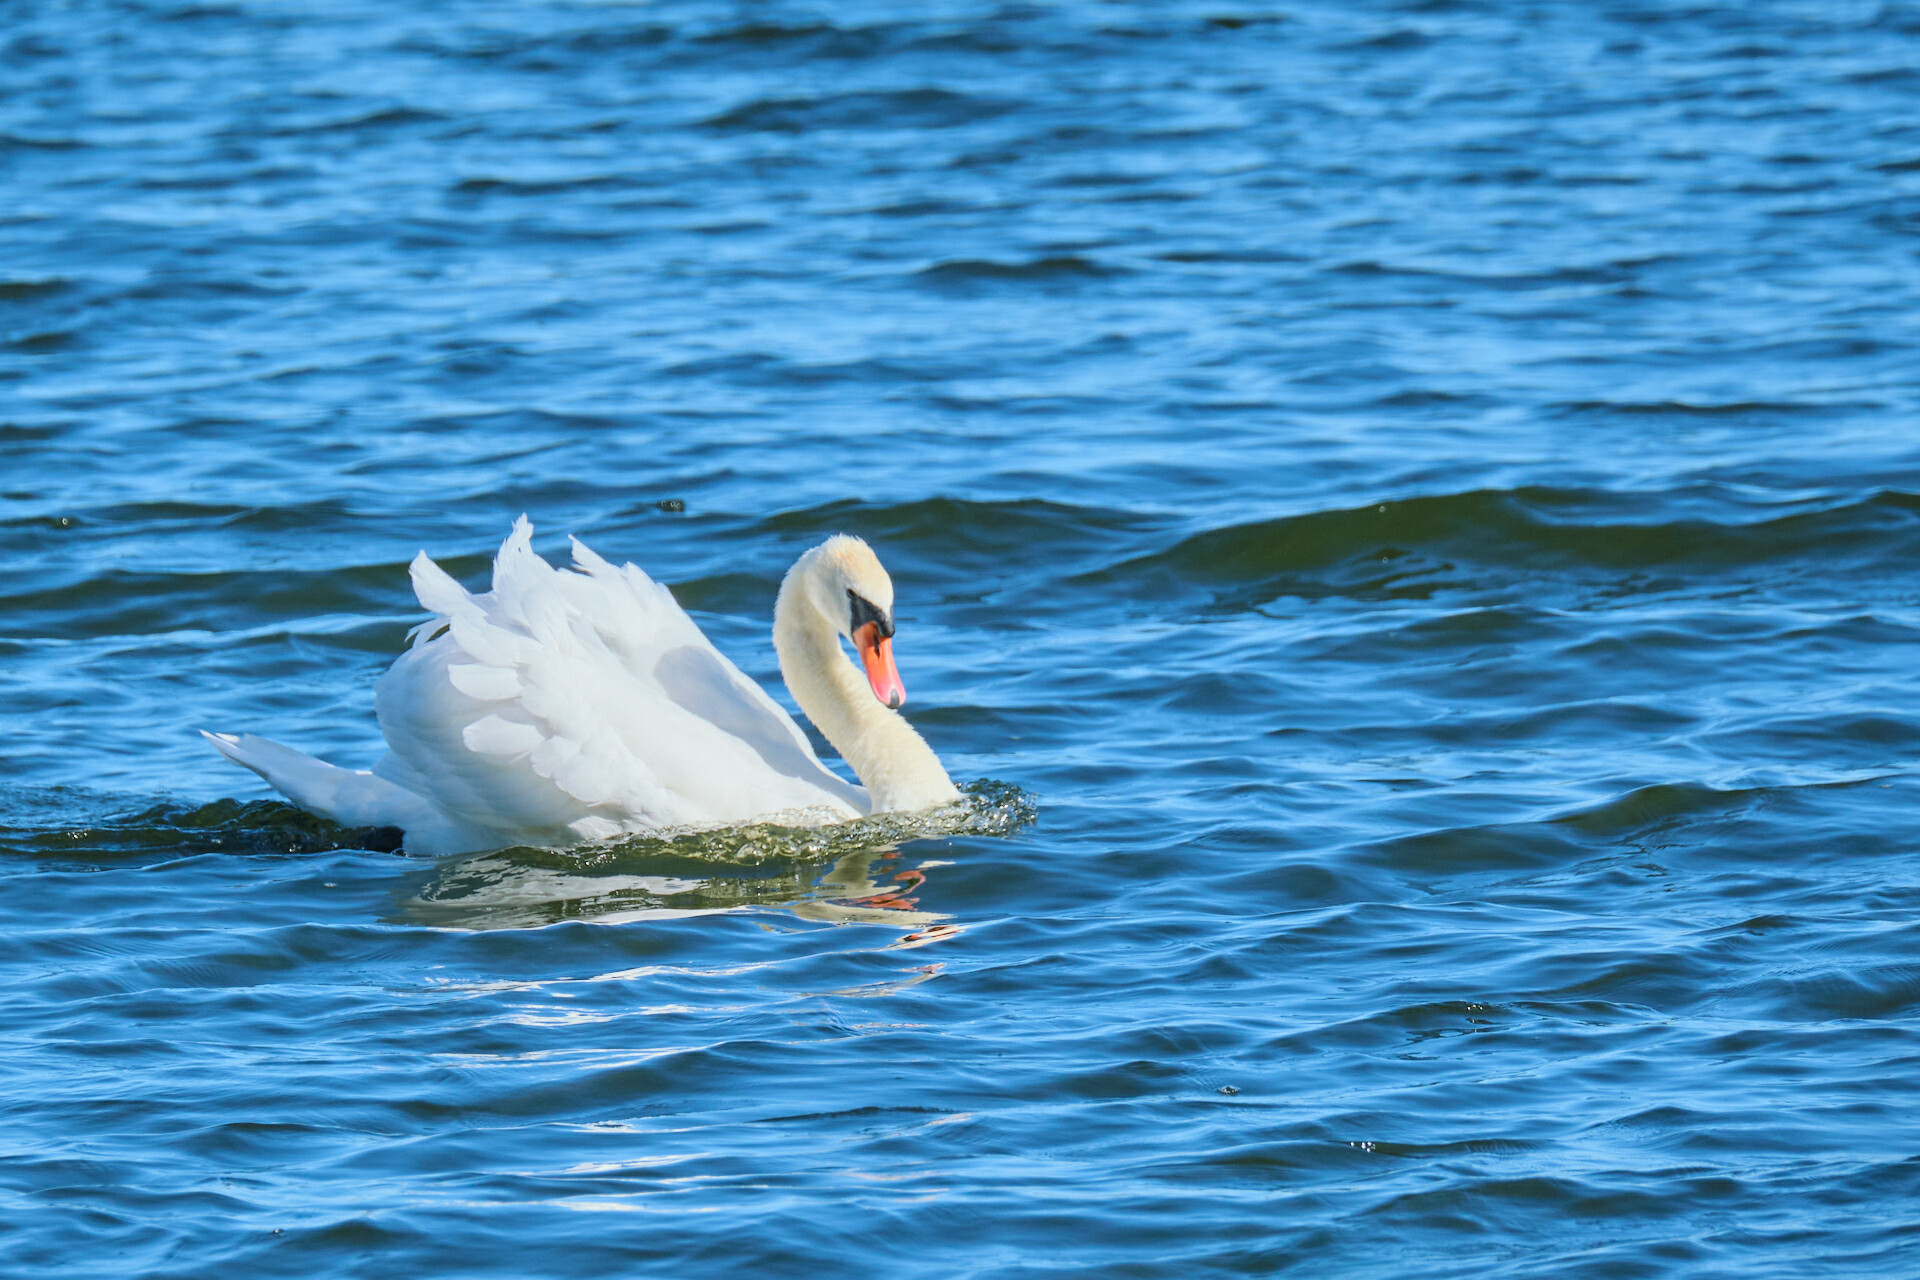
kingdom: Animalia
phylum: Chordata
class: Aves
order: Anseriformes
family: Anatidae
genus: Cygnus
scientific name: Cygnus olor
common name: Mute swan
